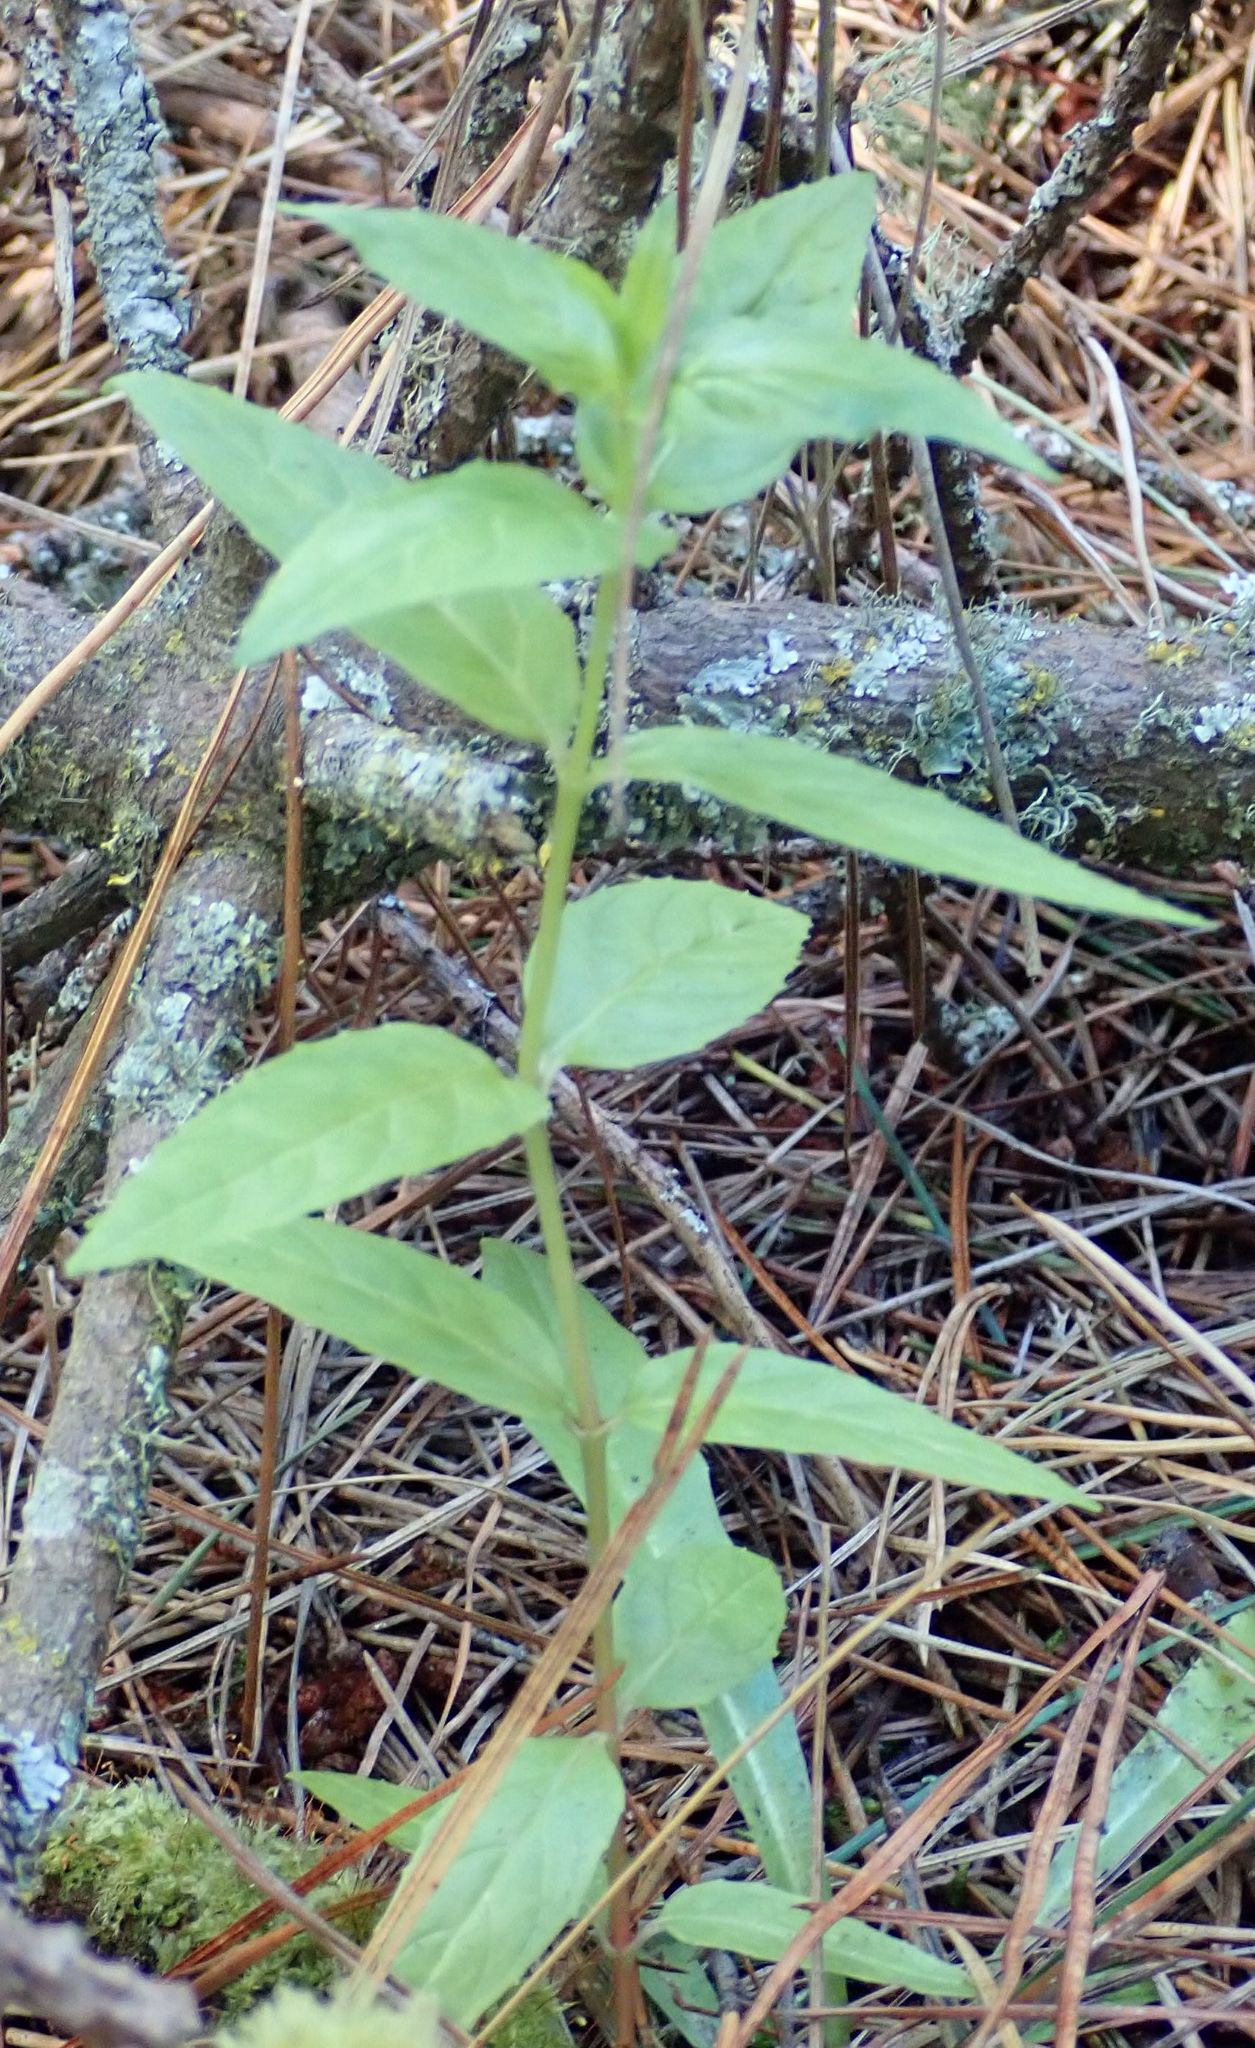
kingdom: Plantae
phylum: Tracheophyta
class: Magnoliopsida
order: Myrtales
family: Onagraceae
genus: Epilobium
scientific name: Epilobium ciliatum
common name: American willowherb
